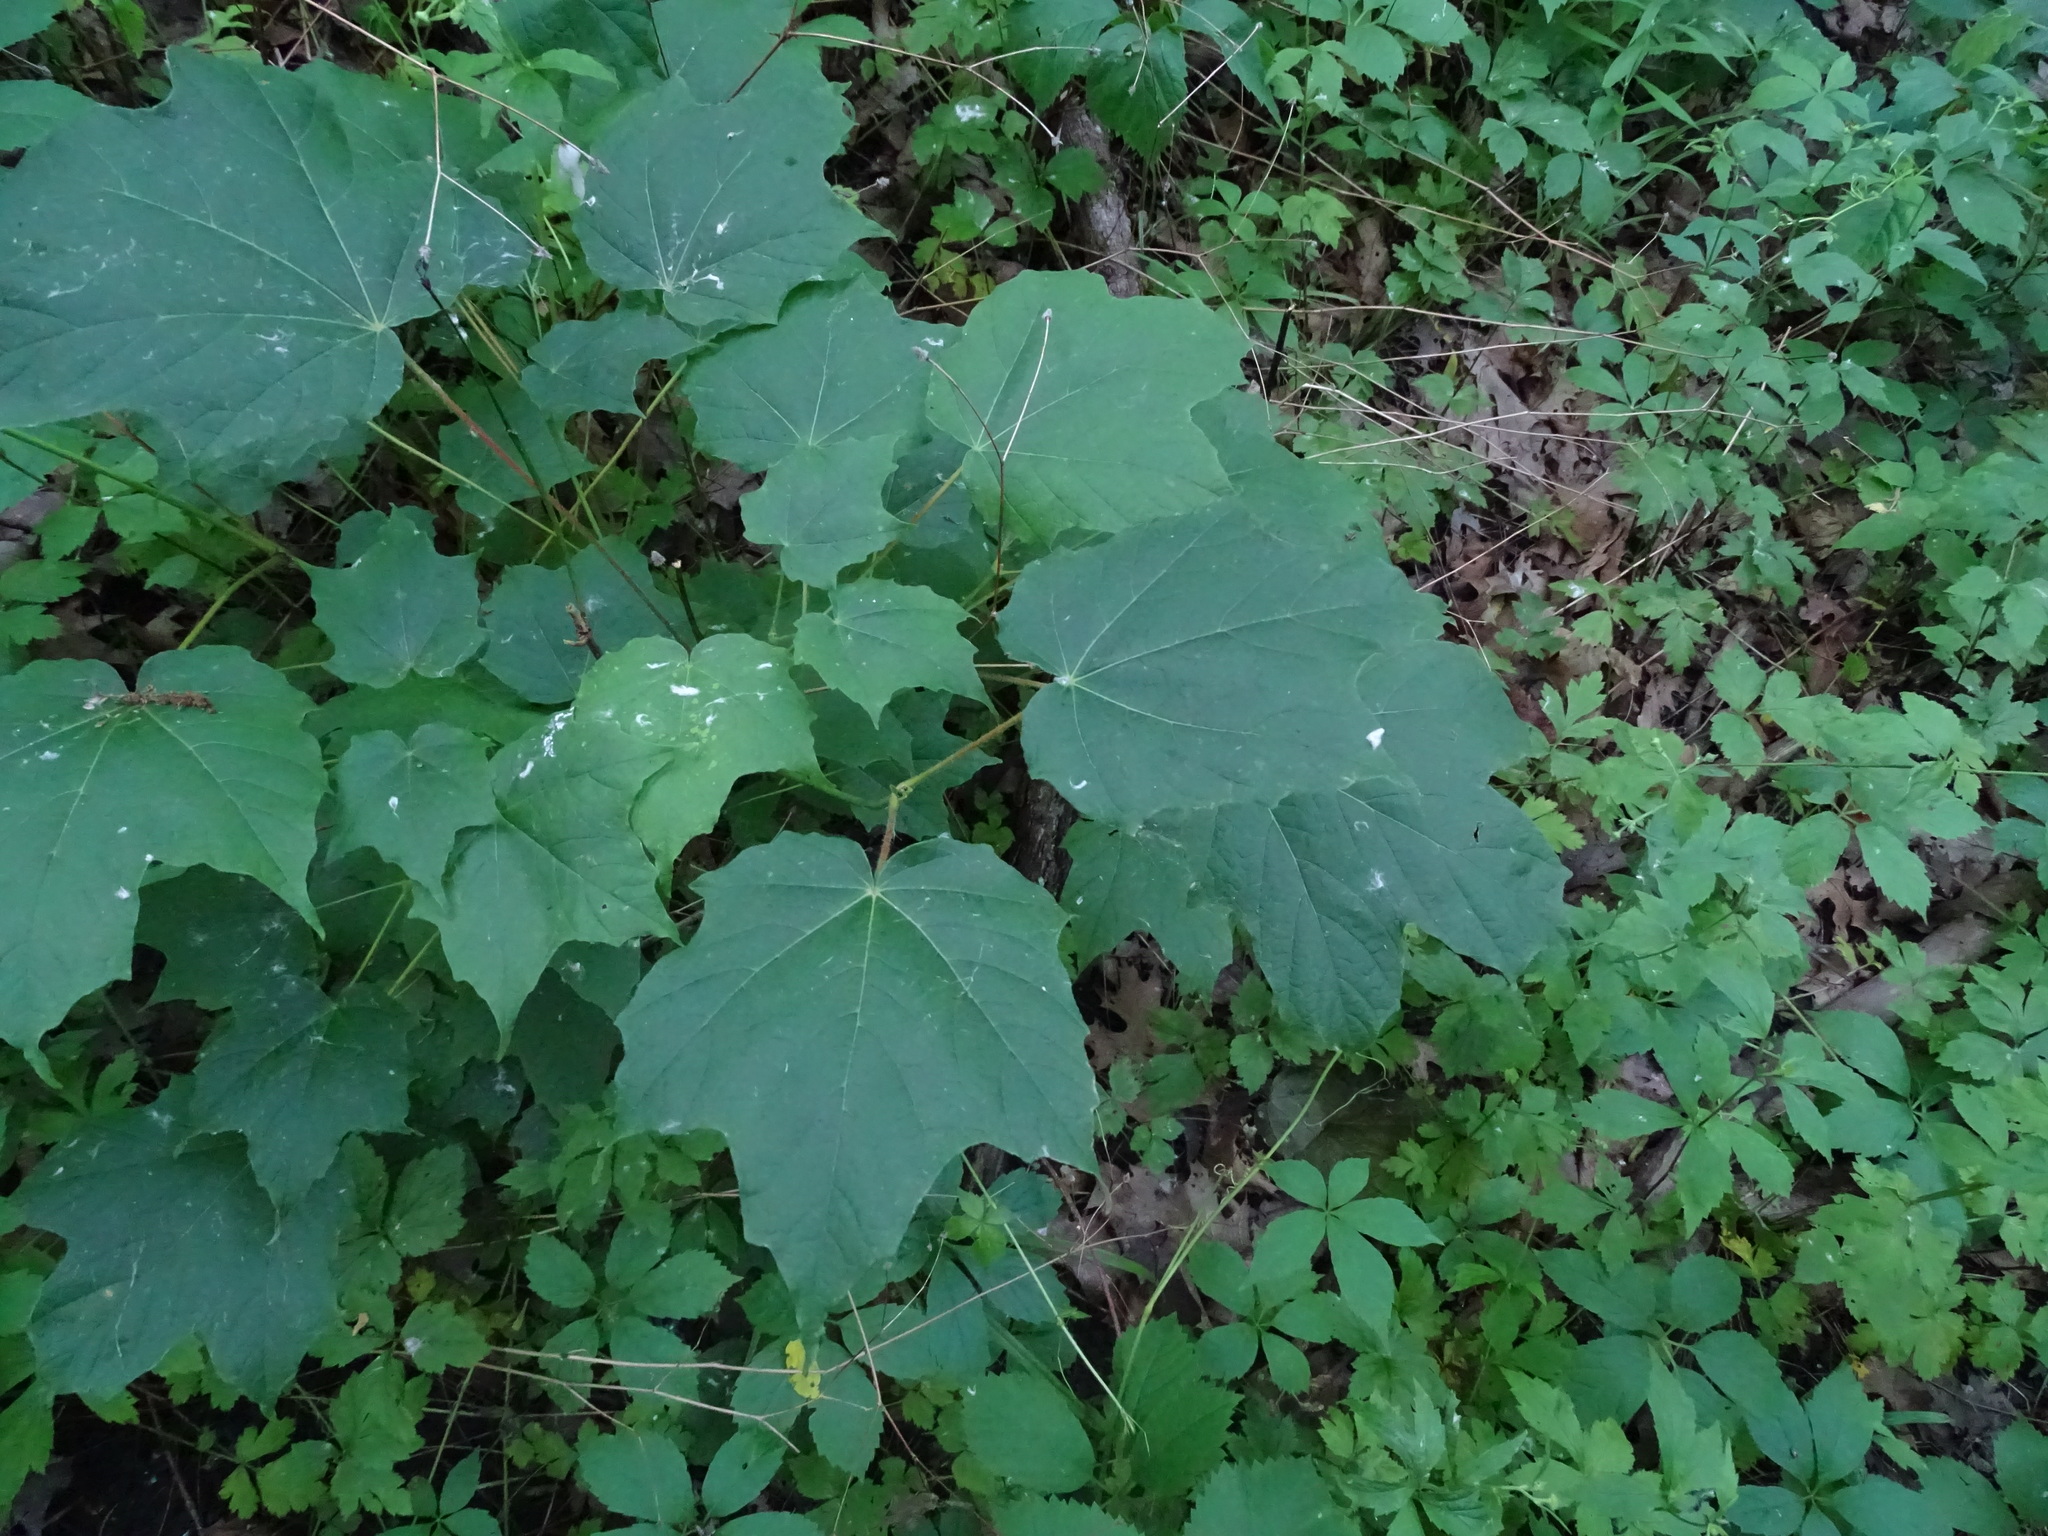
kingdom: Plantae
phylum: Tracheophyta
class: Magnoliopsida
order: Sapindales
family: Sapindaceae
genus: Acer
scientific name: Acer nigrum
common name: Black maple
